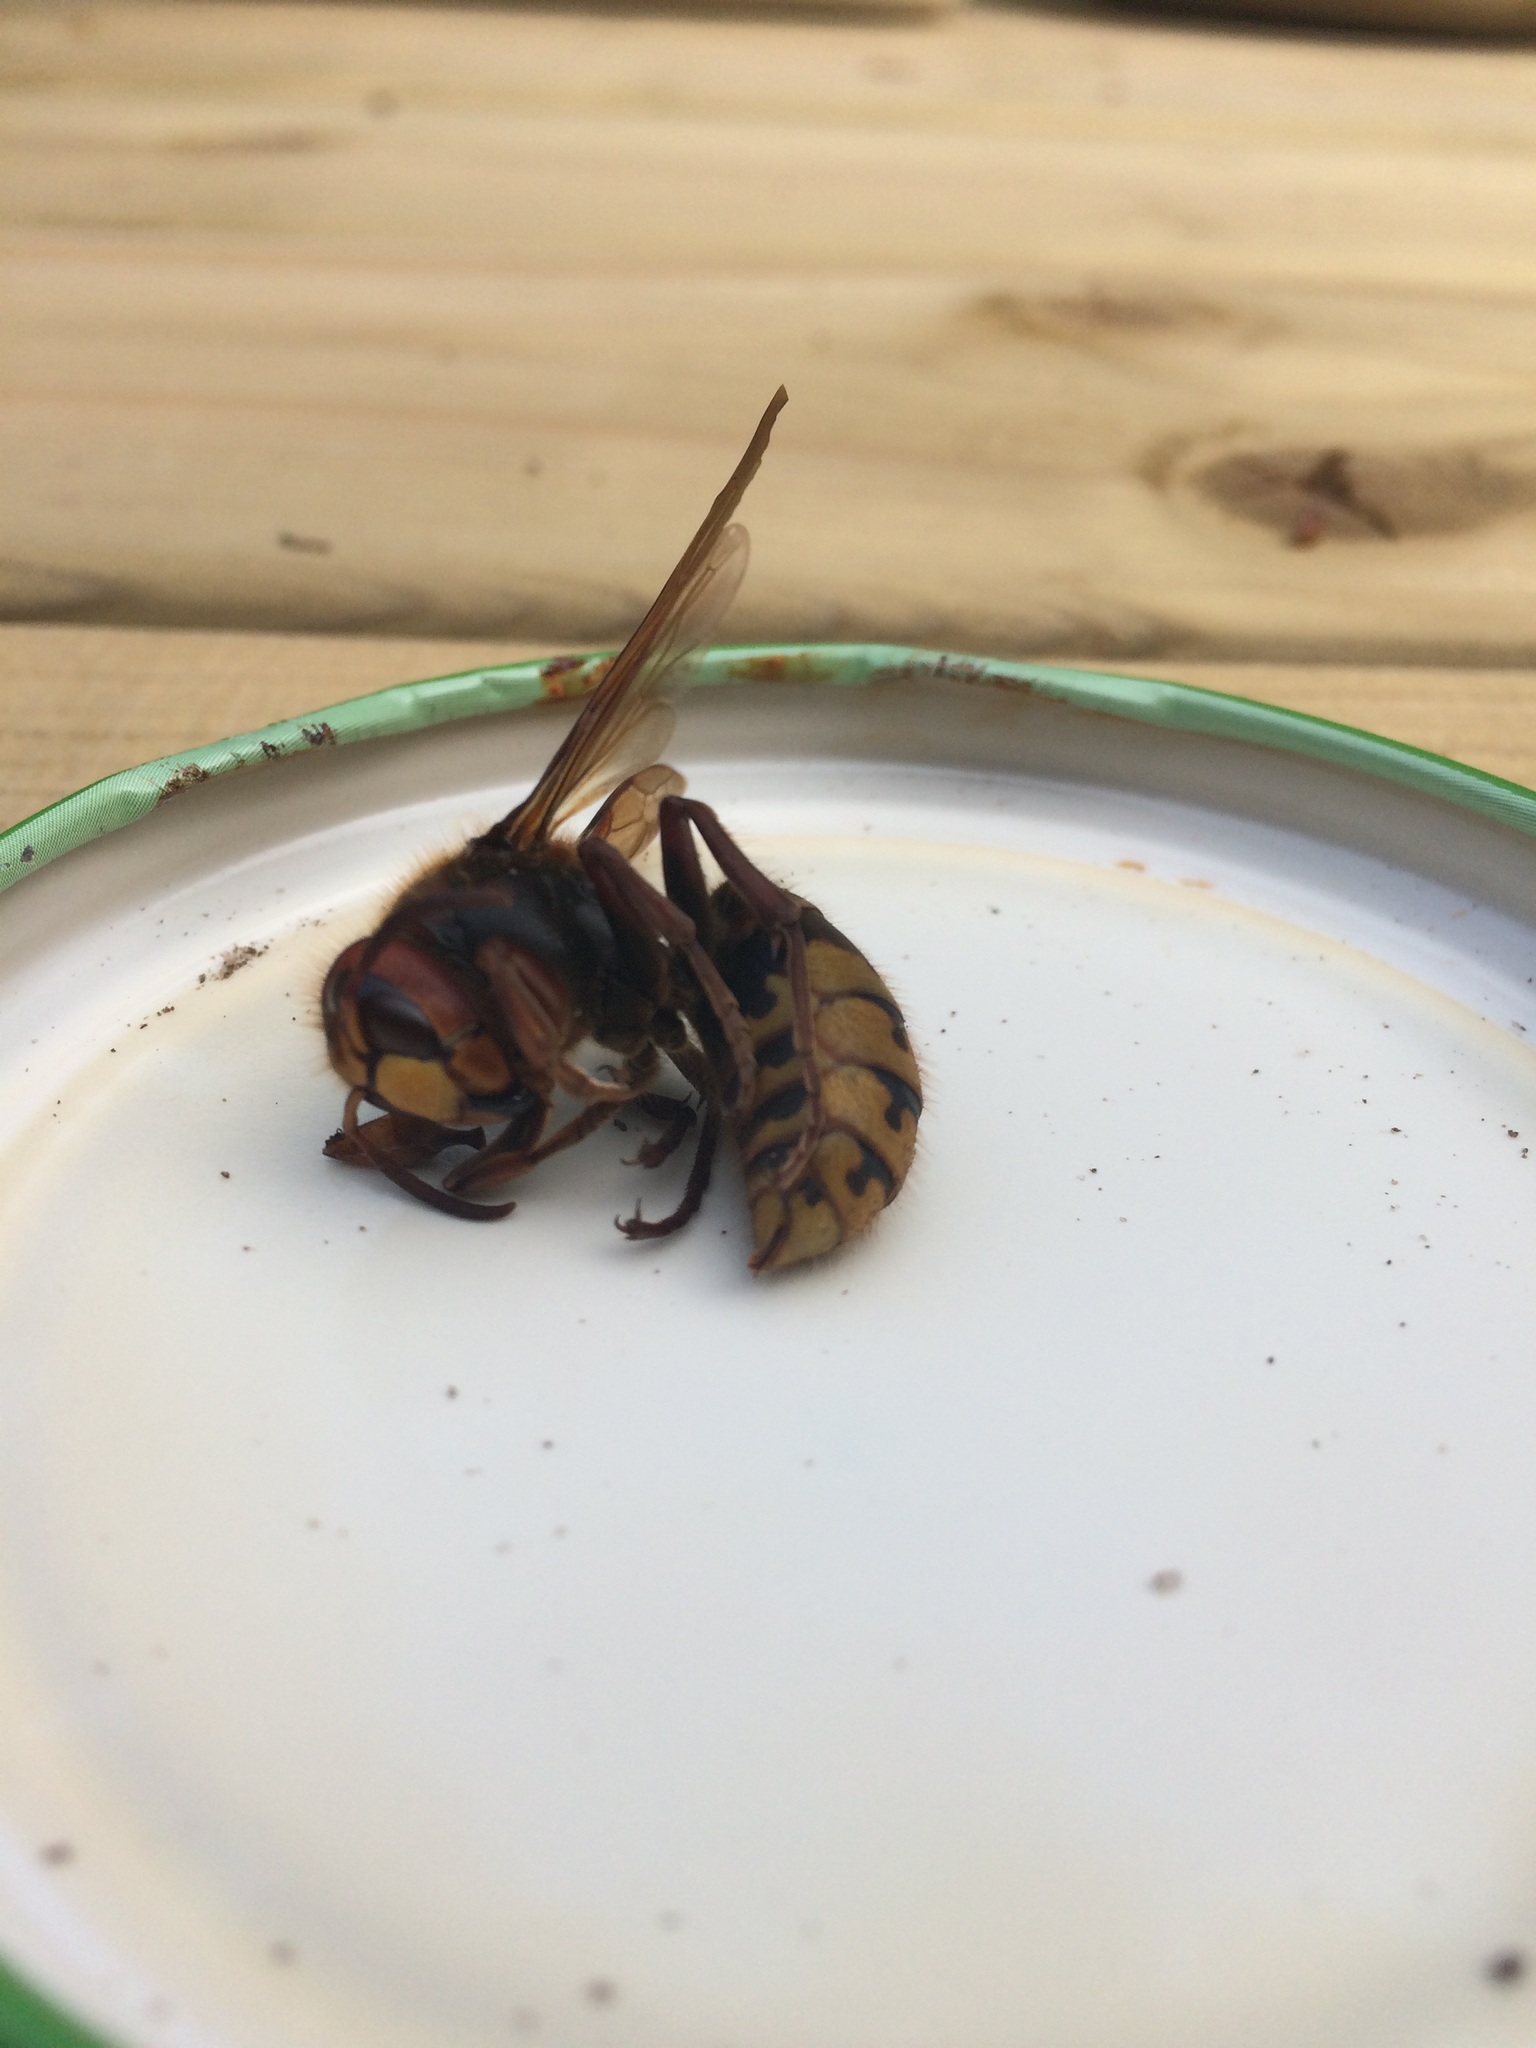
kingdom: Animalia
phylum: Arthropoda
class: Insecta
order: Hymenoptera
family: Vespidae
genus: Vespa
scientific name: Vespa crabro
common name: Hornet
